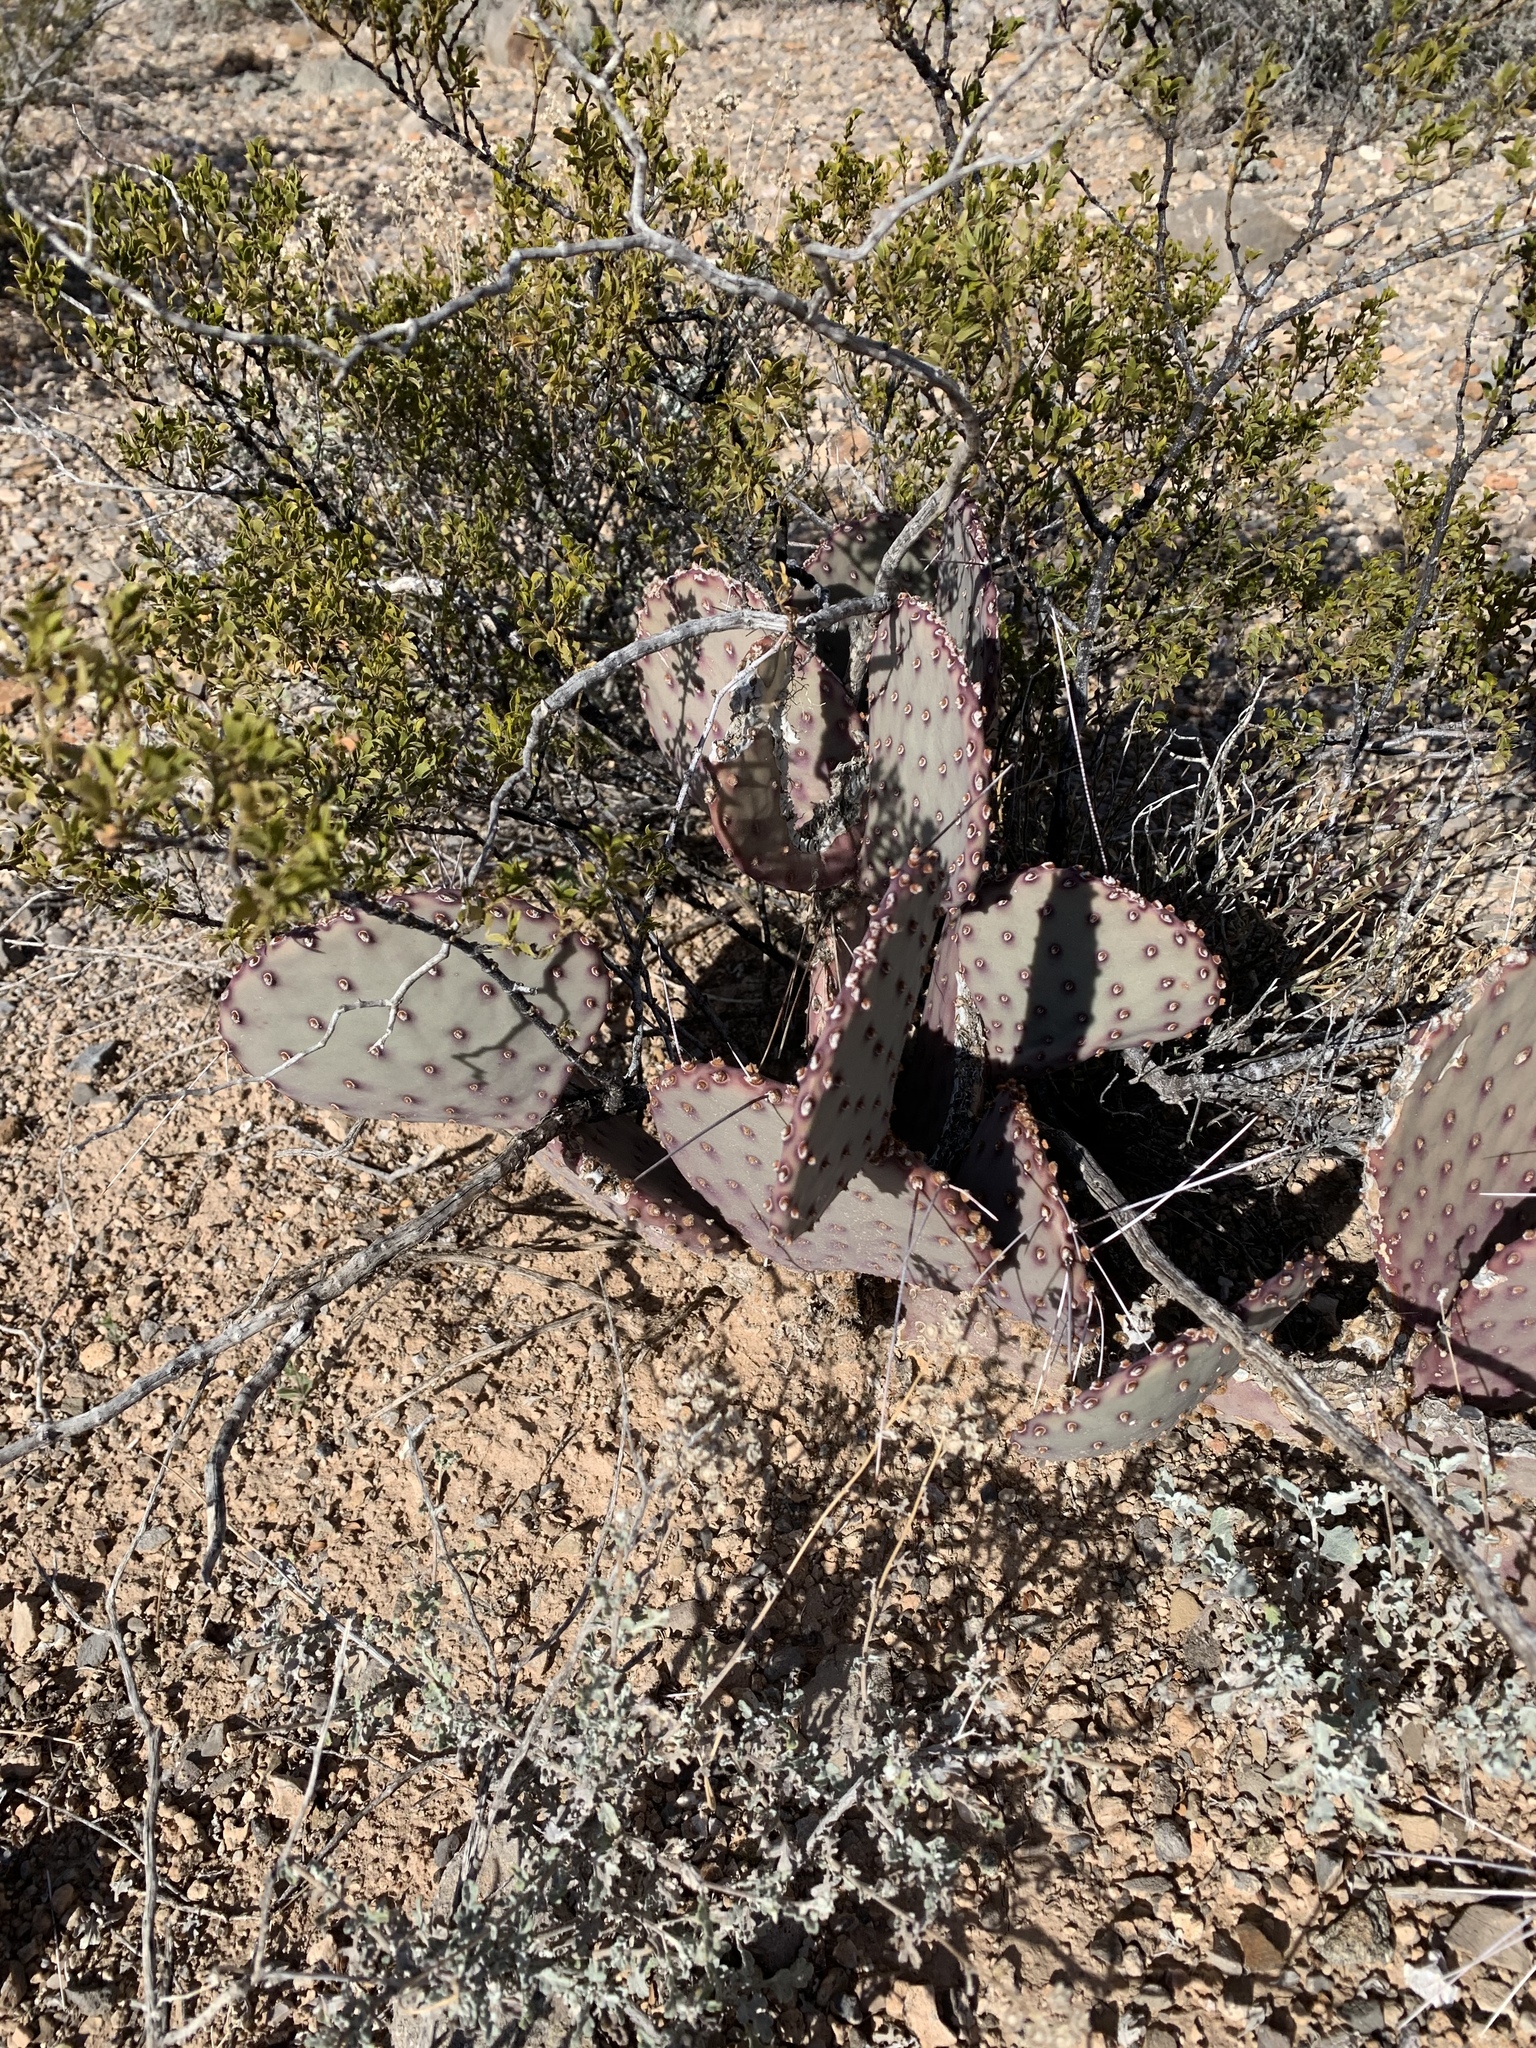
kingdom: Plantae
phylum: Tracheophyta
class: Magnoliopsida
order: Caryophyllales
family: Cactaceae
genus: Opuntia
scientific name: Opuntia macrocentra
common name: Purple prickly-pear
